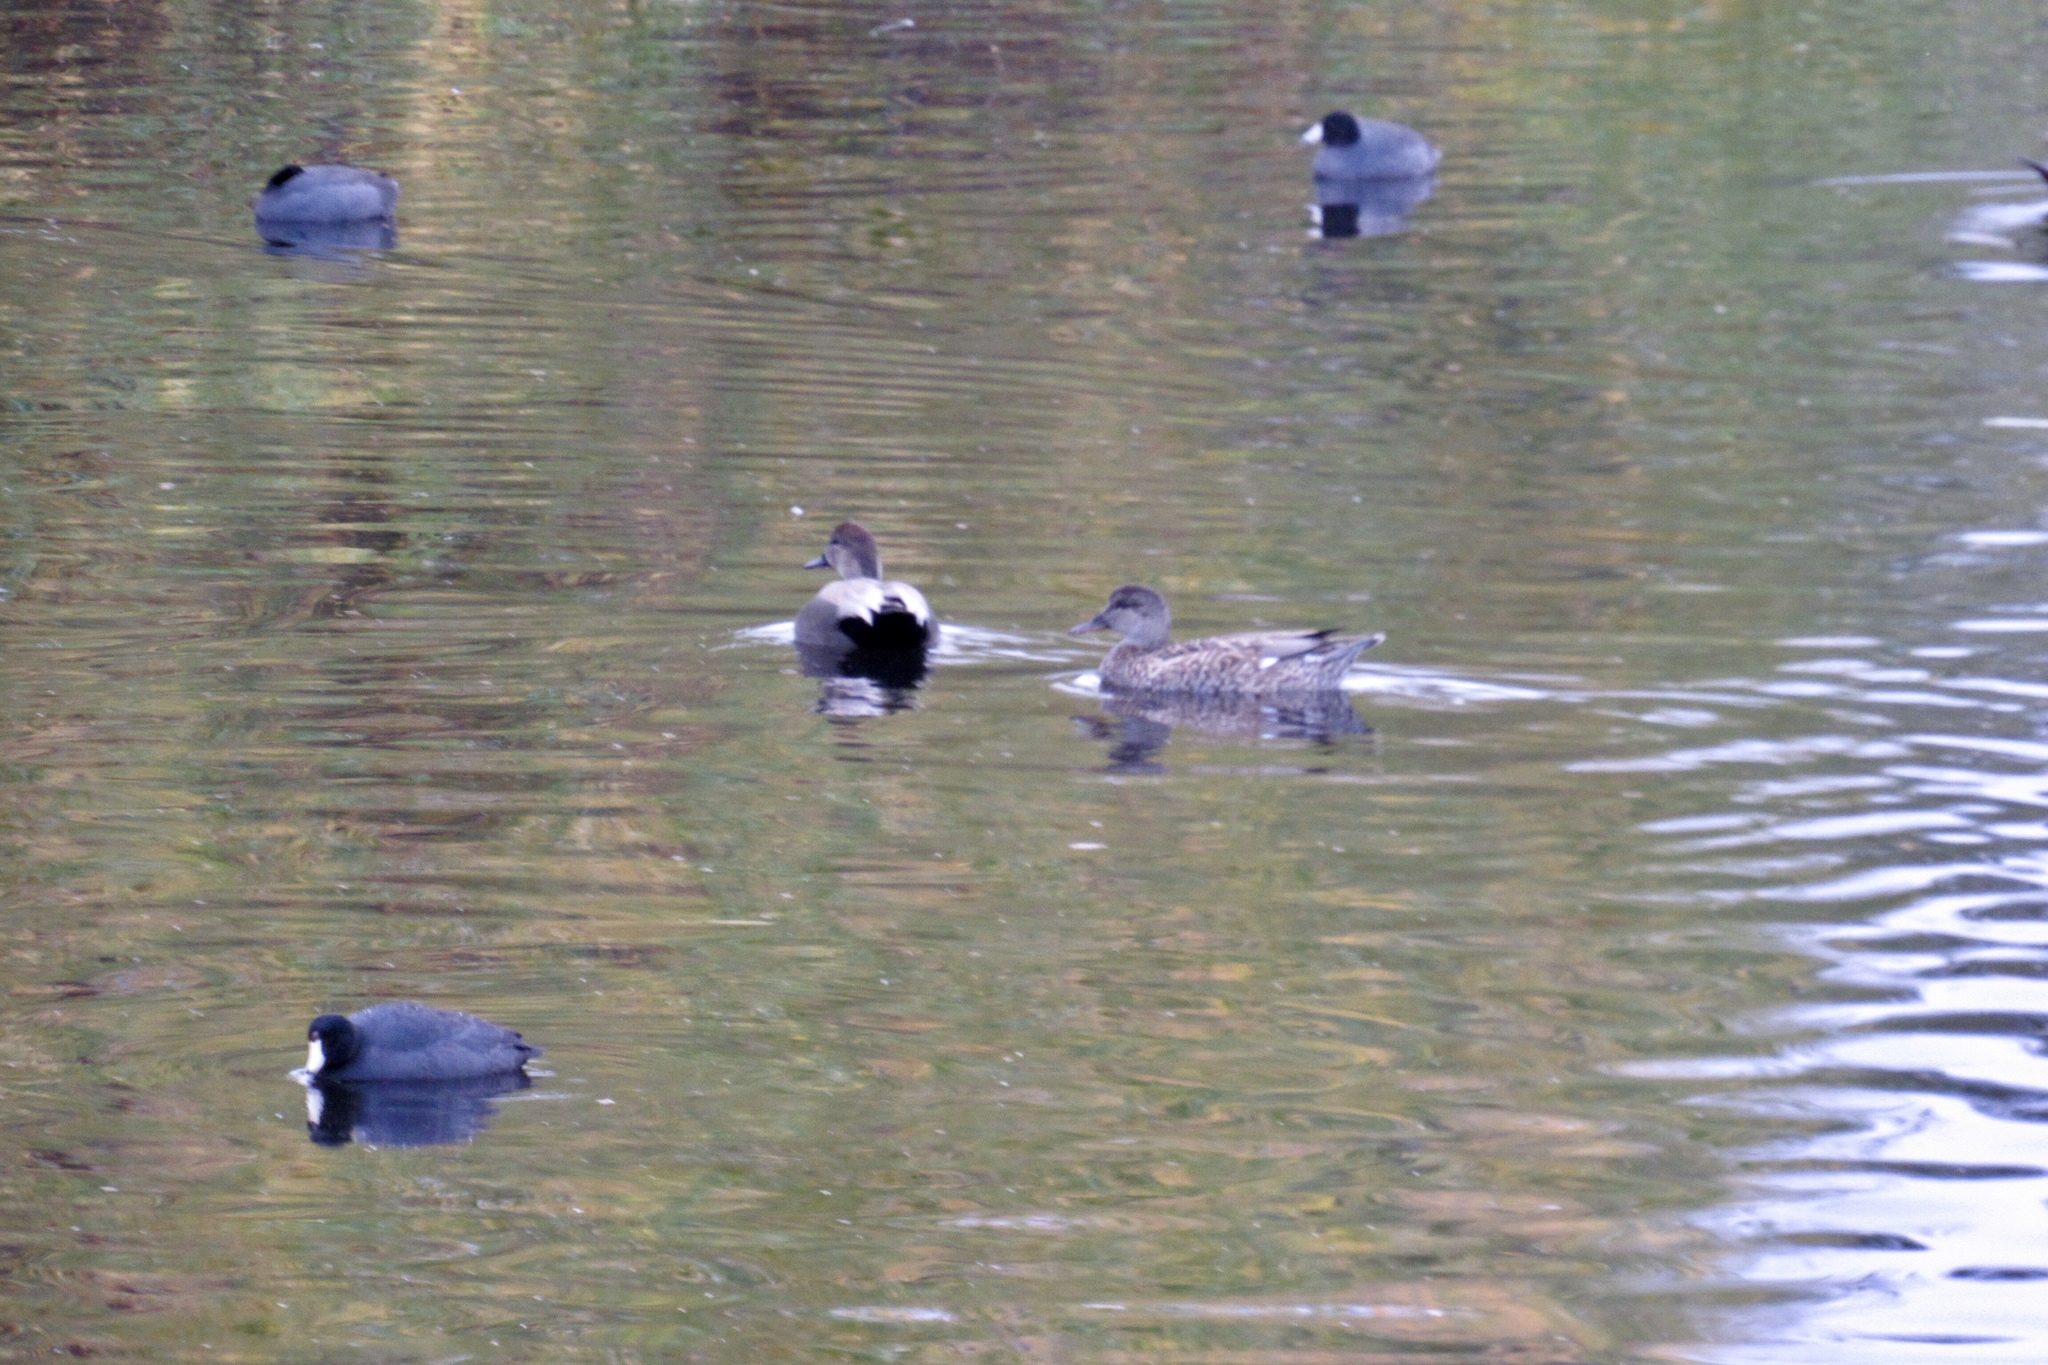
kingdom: Animalia
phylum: Chordata
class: Aves
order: Gruiformes
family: Rallidae
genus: Fulica
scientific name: Fulica americana
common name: American coot
